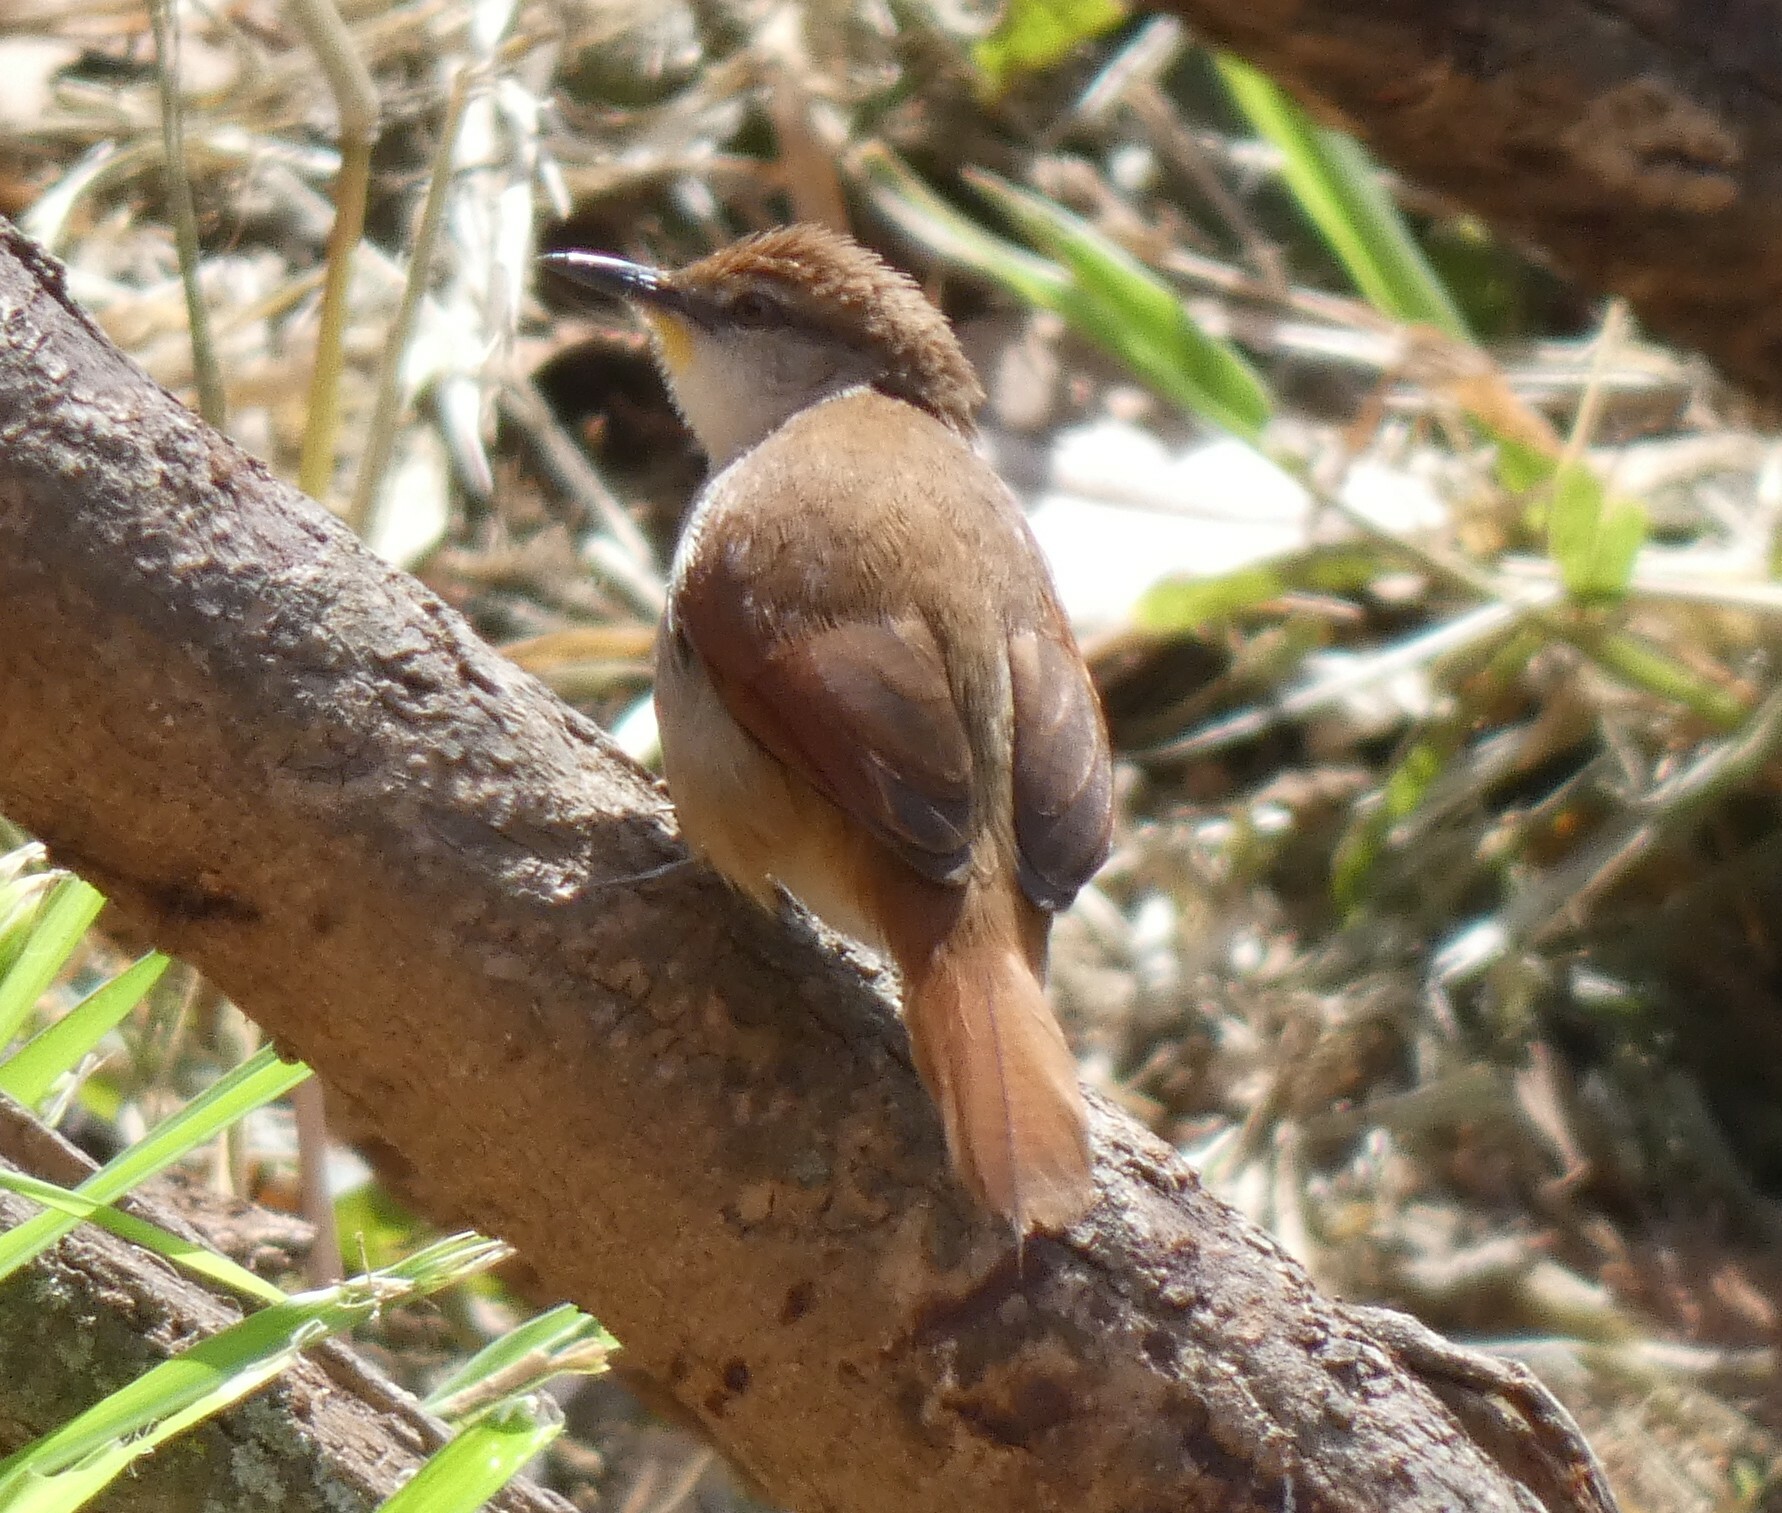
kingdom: Animalia
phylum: Chordata
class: Aves
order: Passeriformes
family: Furnariidae
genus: Certhiaxis
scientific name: Certhiaxis cinnamomeus
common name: Yellow-chinned spinetail
